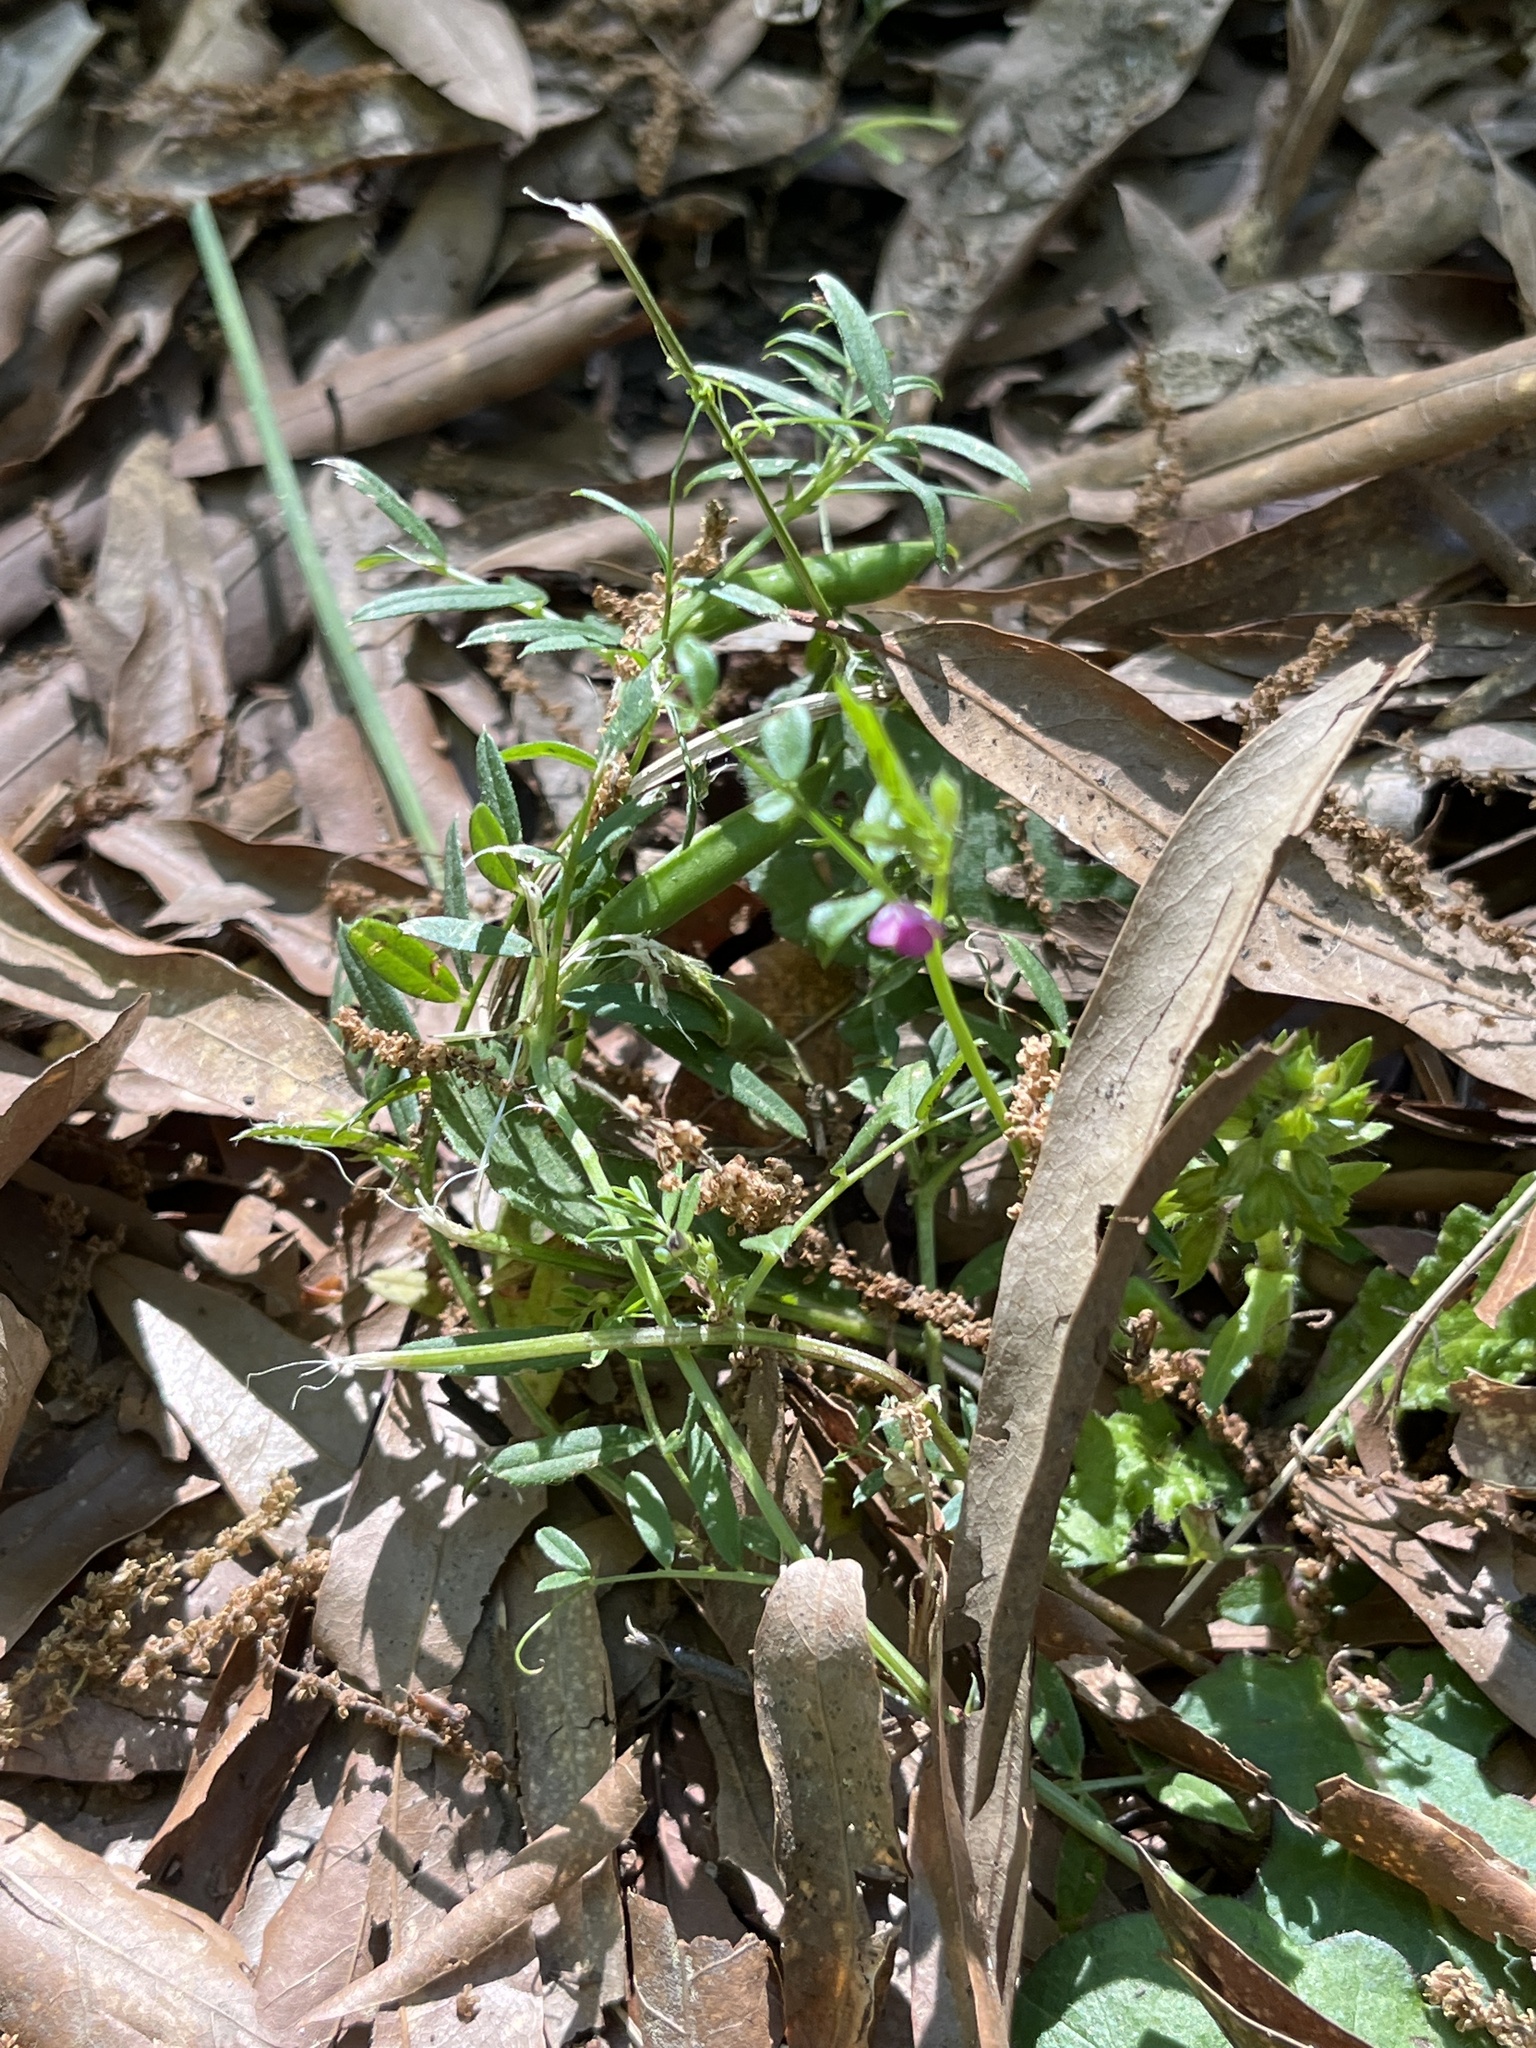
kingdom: Plantae
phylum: Tracheophyta
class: Magnoliopsida
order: Fabales
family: Fabaceae
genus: Vicia
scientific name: Vicia sativa
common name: Garden vetch
